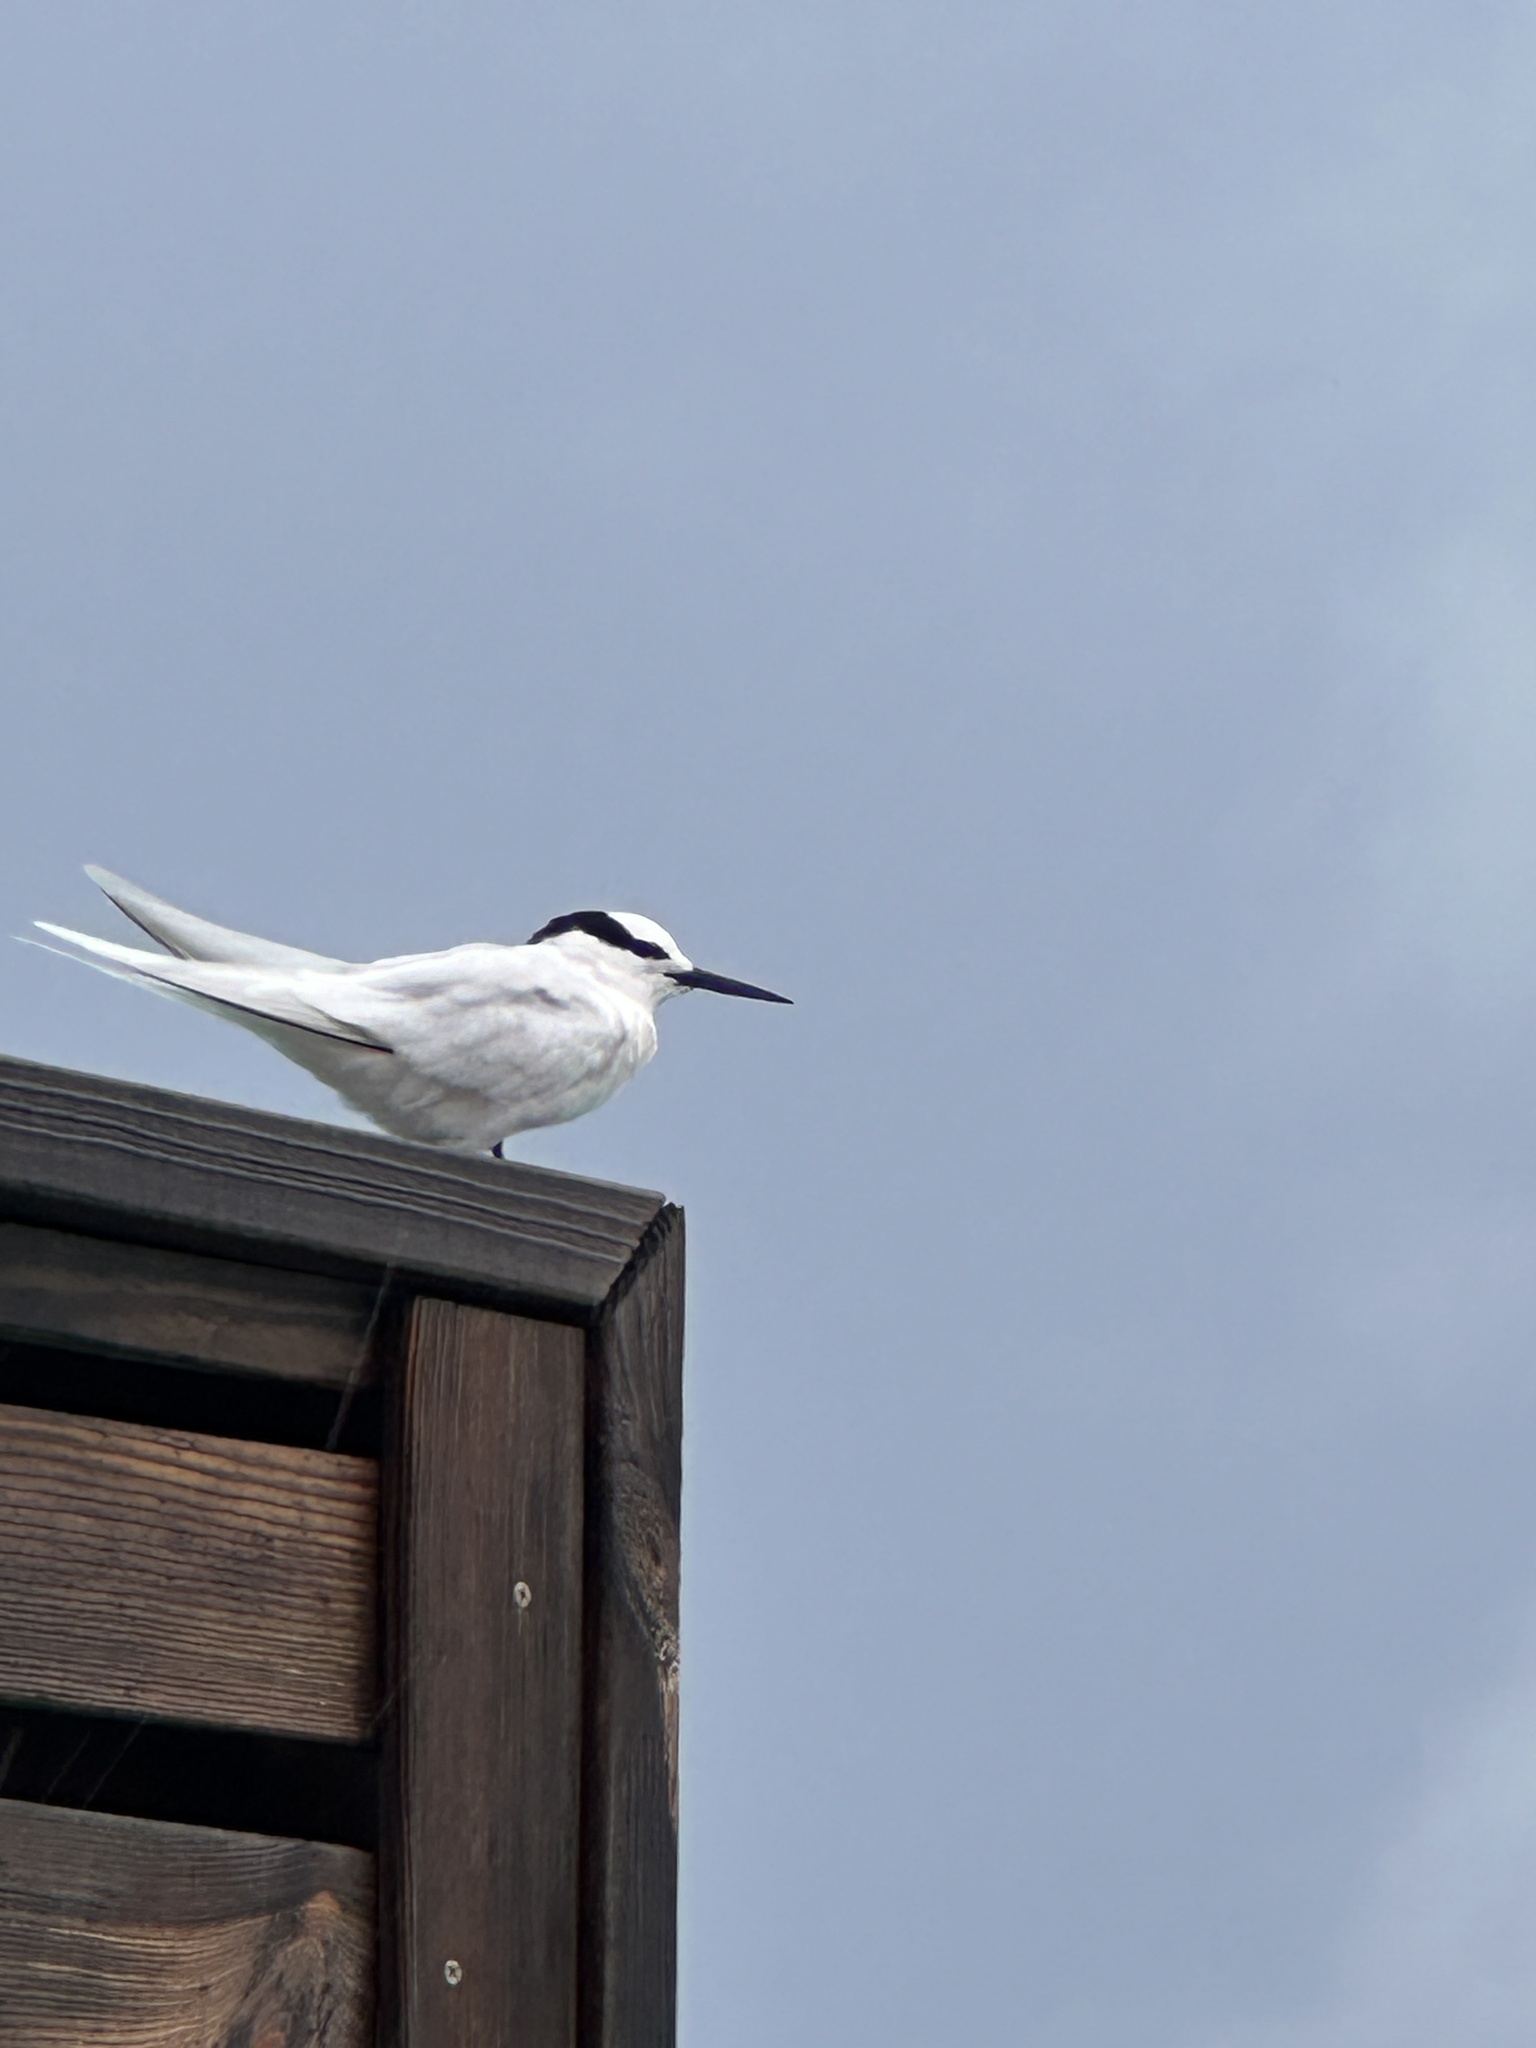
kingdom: Animalia
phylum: Chordata
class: Aves
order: Charadriiformes
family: Laridae
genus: Sterna
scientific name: Sterna sumatrana
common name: Black-naped tern
